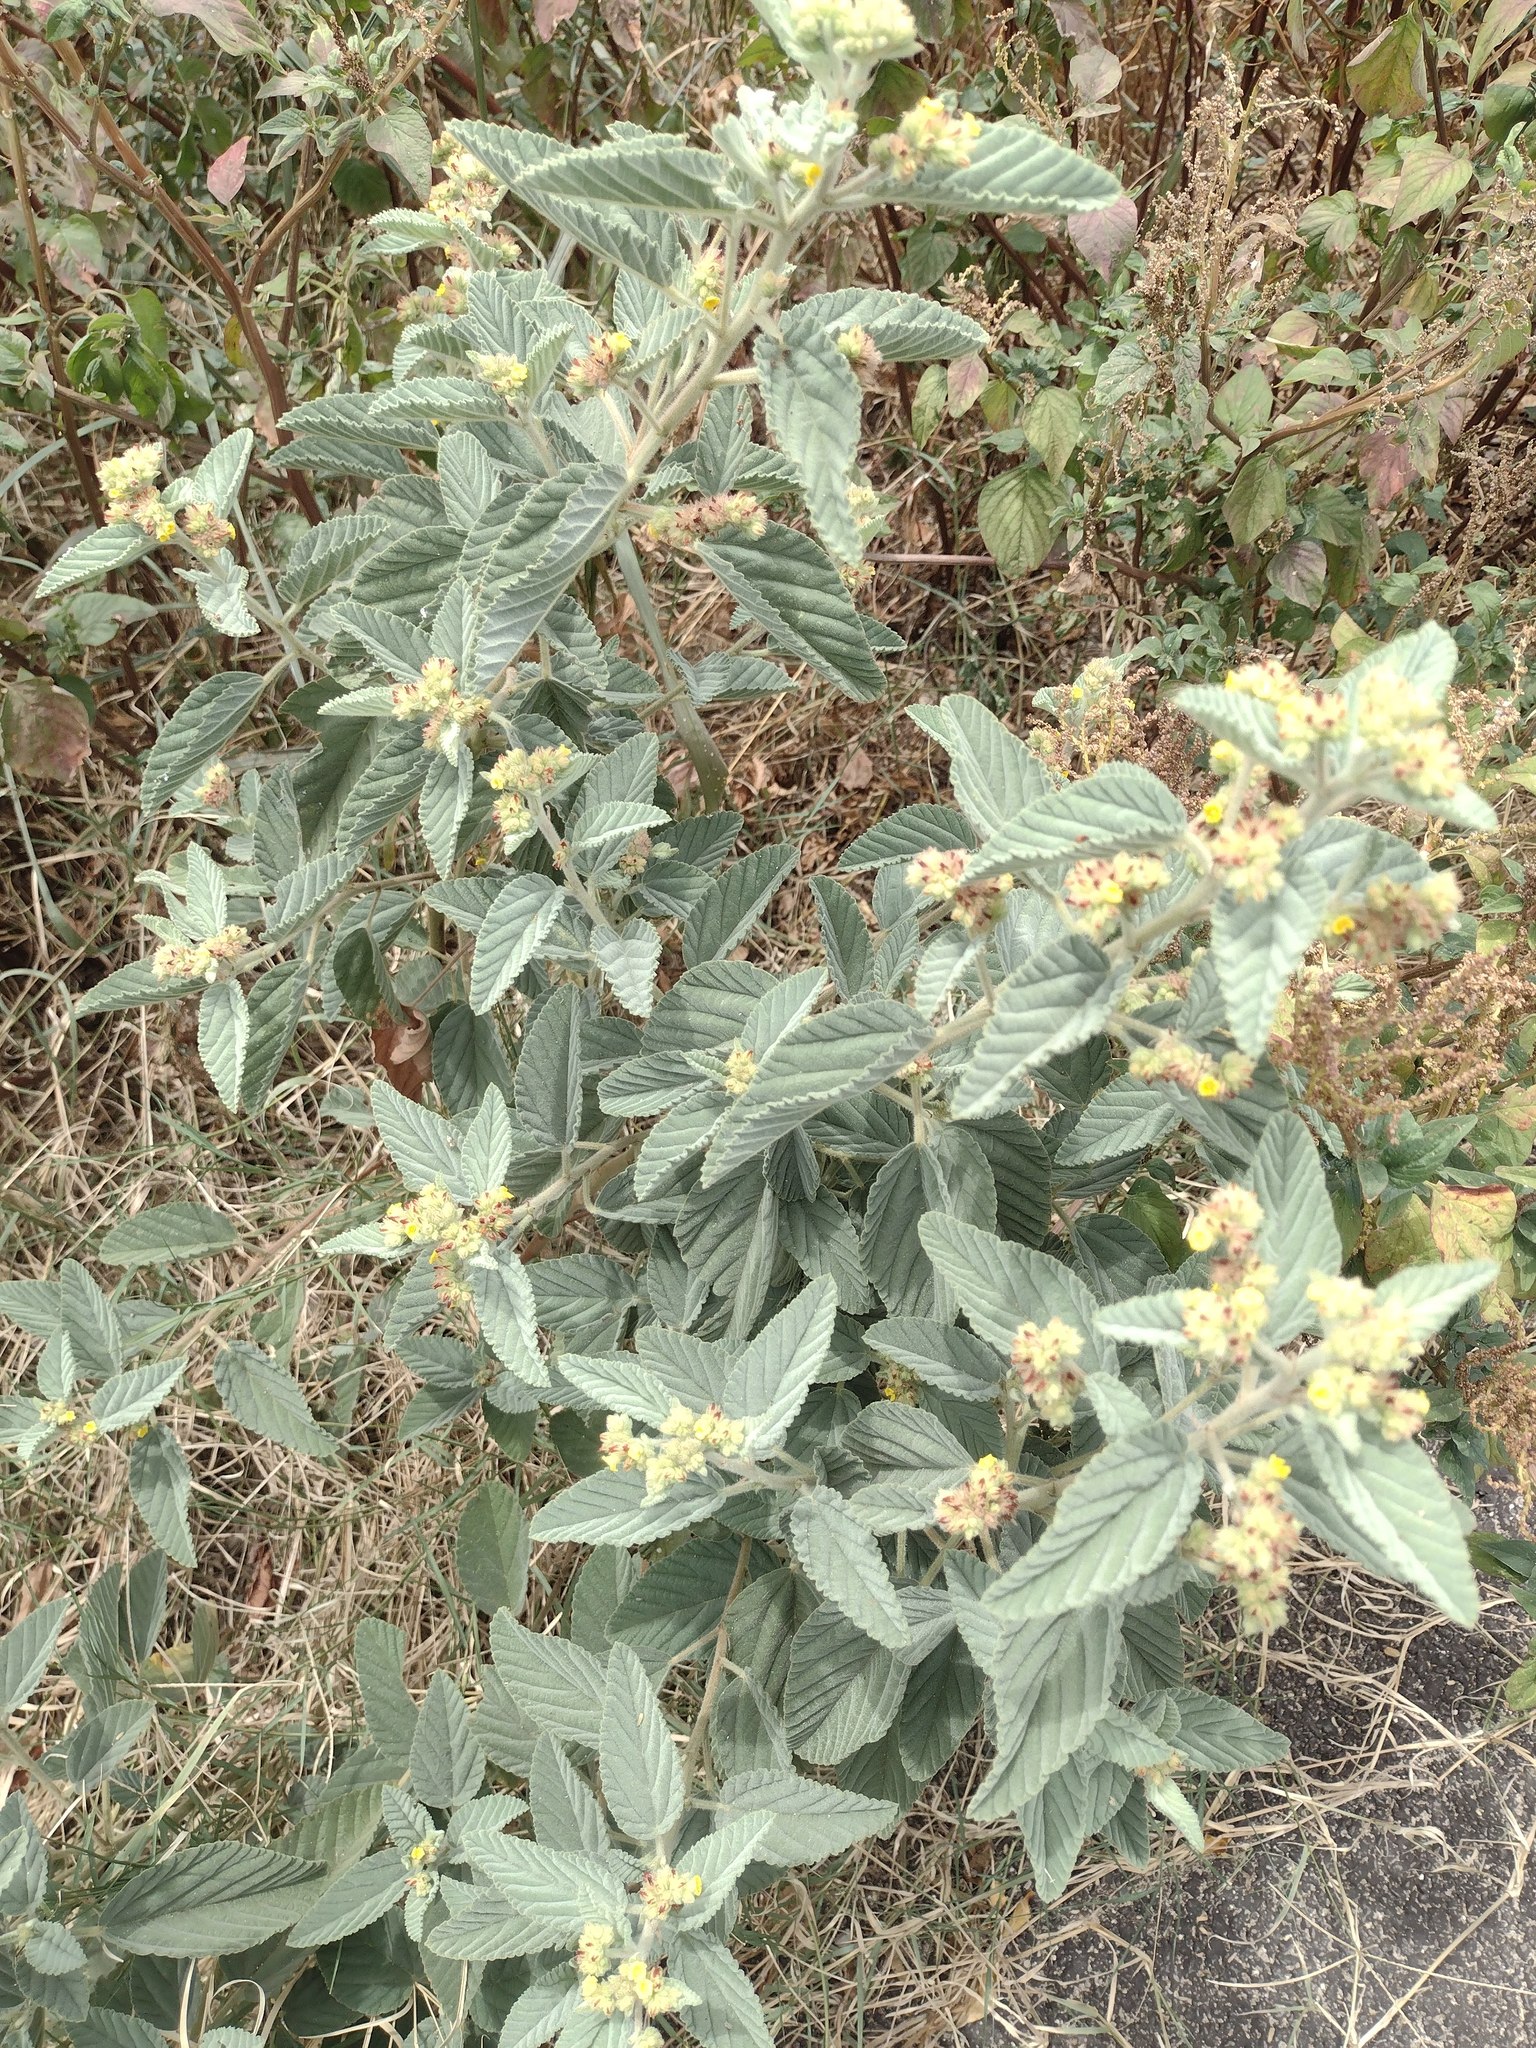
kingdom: Plantae
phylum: Tracheophyta
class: Magnoliopsida
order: Malvales
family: Malvaceae
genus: Waltheria
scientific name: Waltheria indica
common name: Leather-coat
